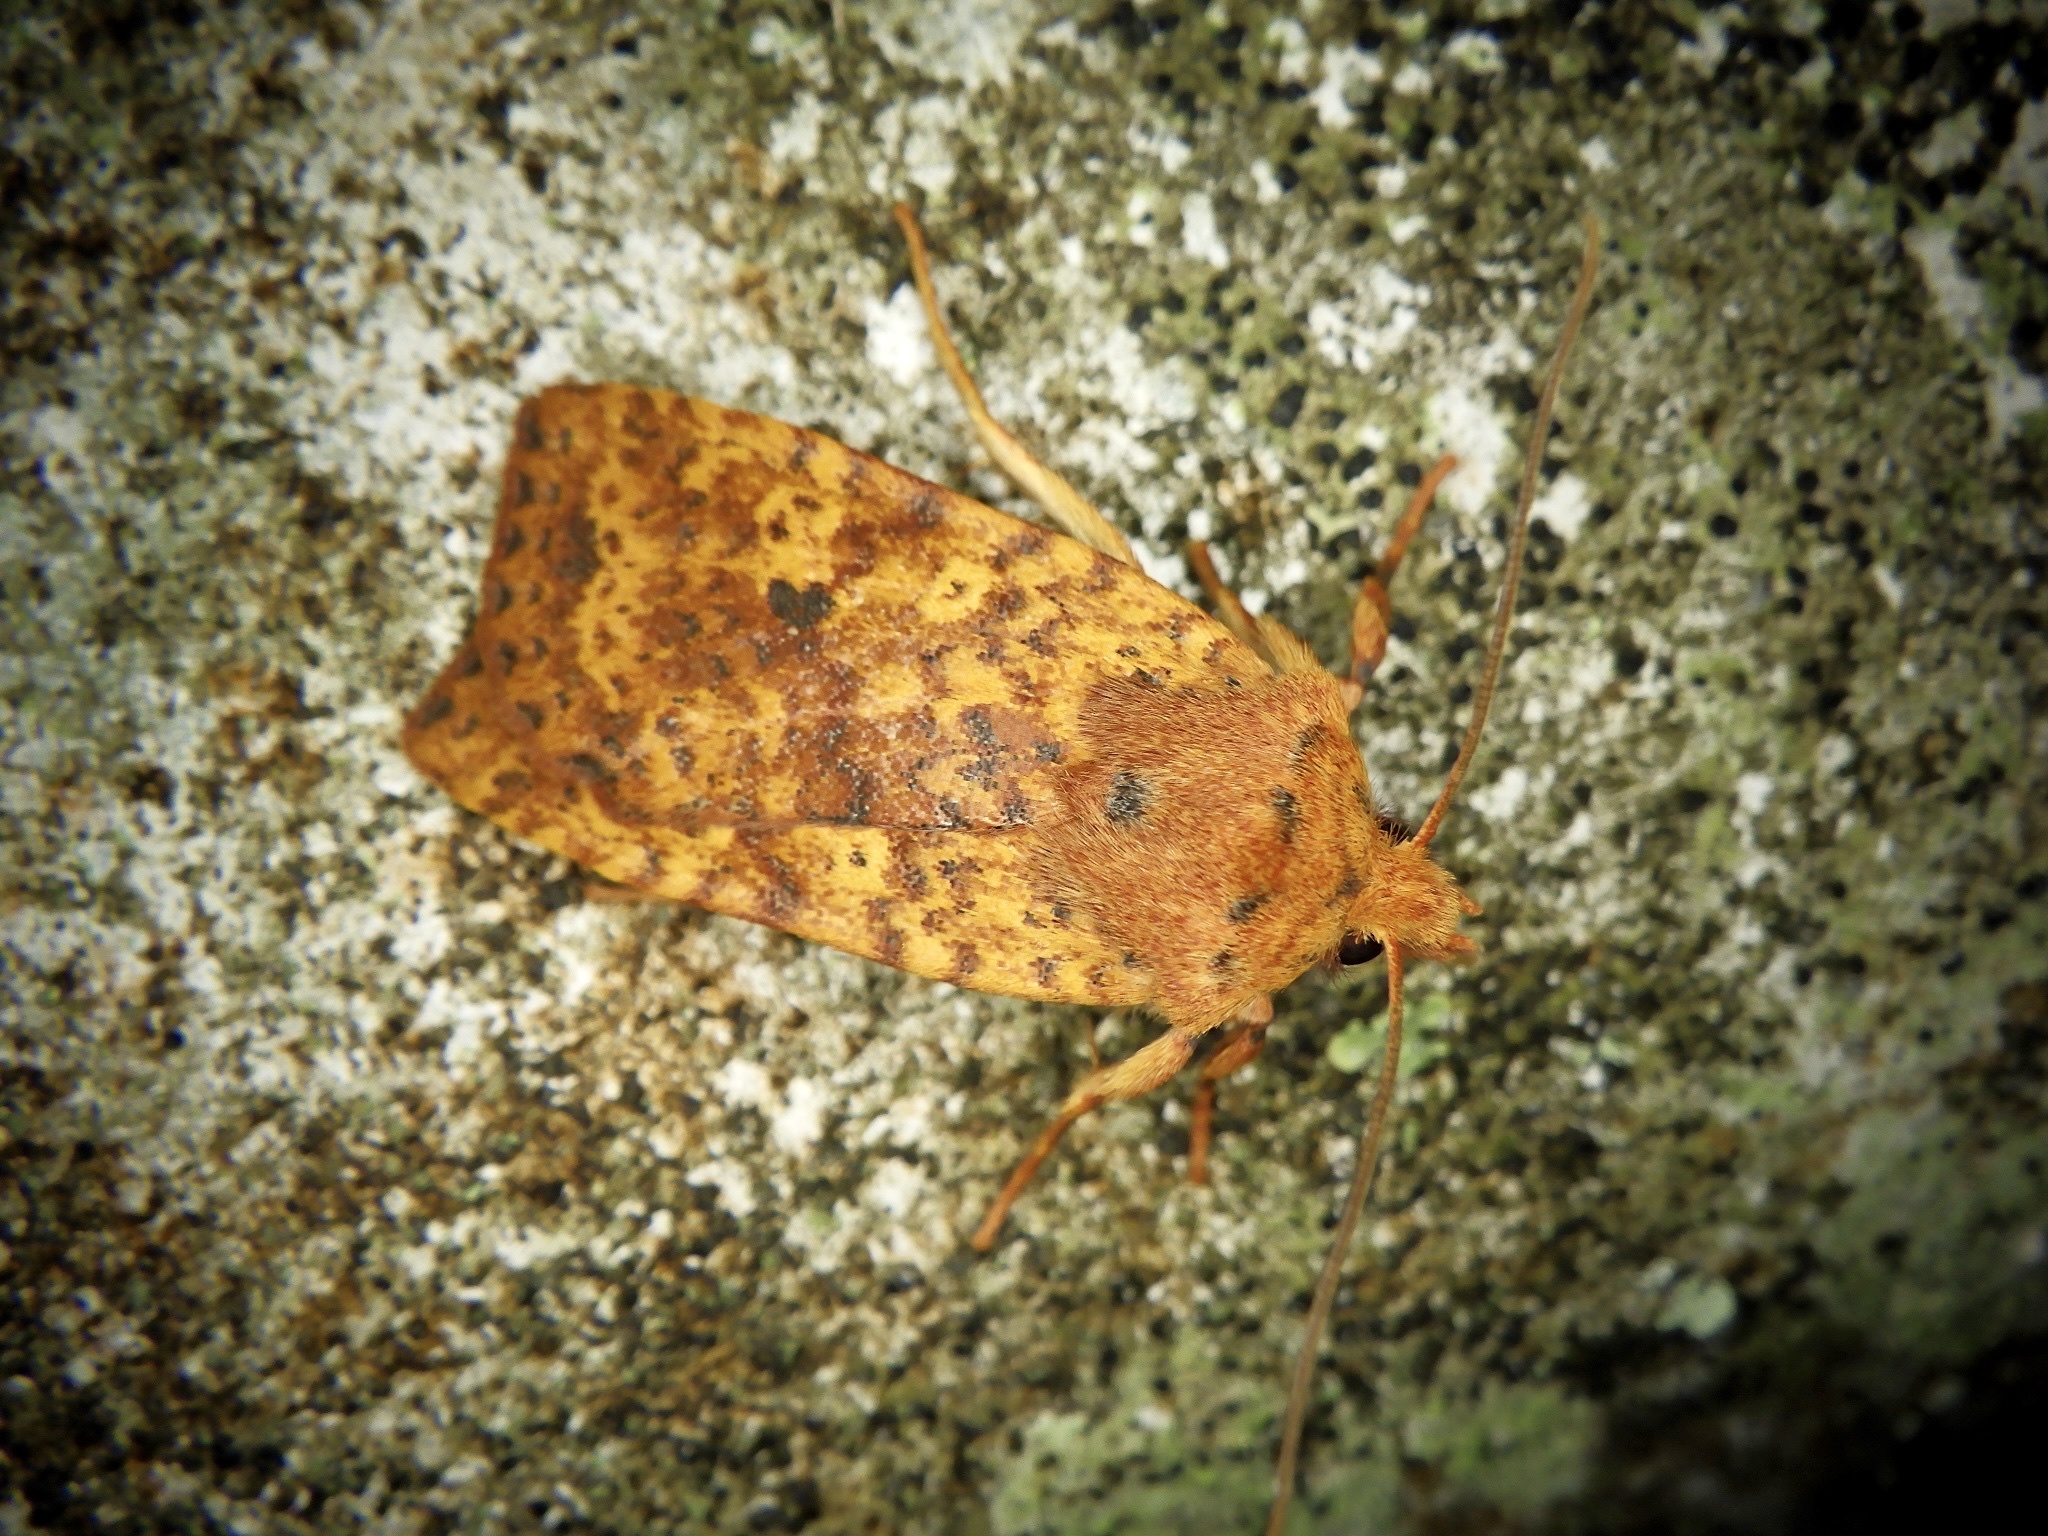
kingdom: Animalia
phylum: Arthropoda
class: Insecta
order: Lepidoptera
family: Noctuidae
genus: Conistra
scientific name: Conistra castaneofasciata
